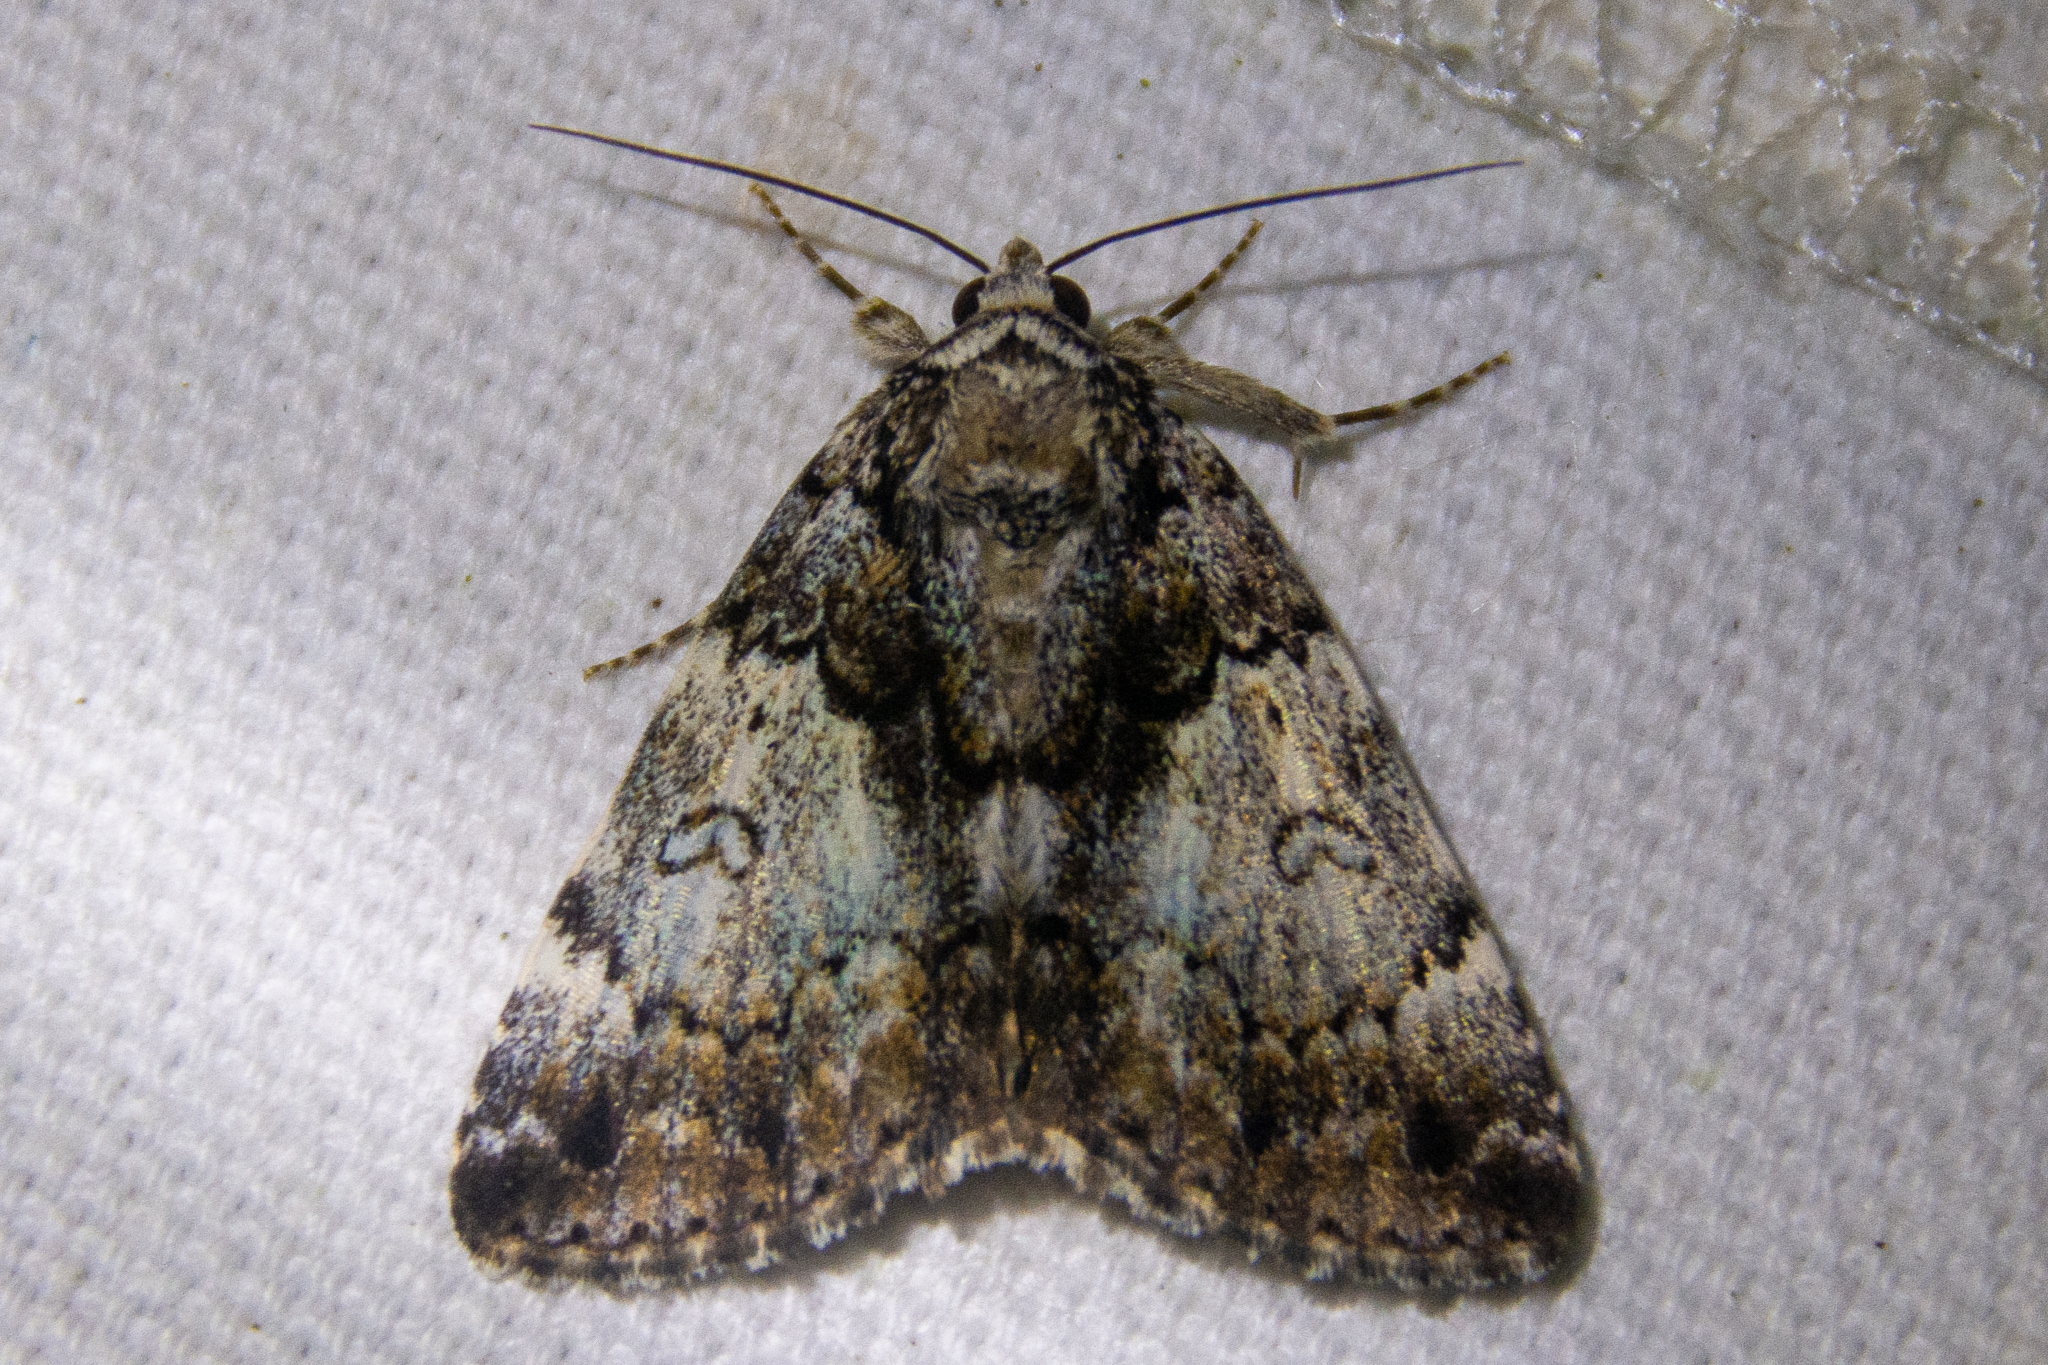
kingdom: Animalia
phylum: Arthropoda
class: Insecta
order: Lepidoptera
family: Erebidae
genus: Allotria
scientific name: Allotria elonympha
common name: False underwing
